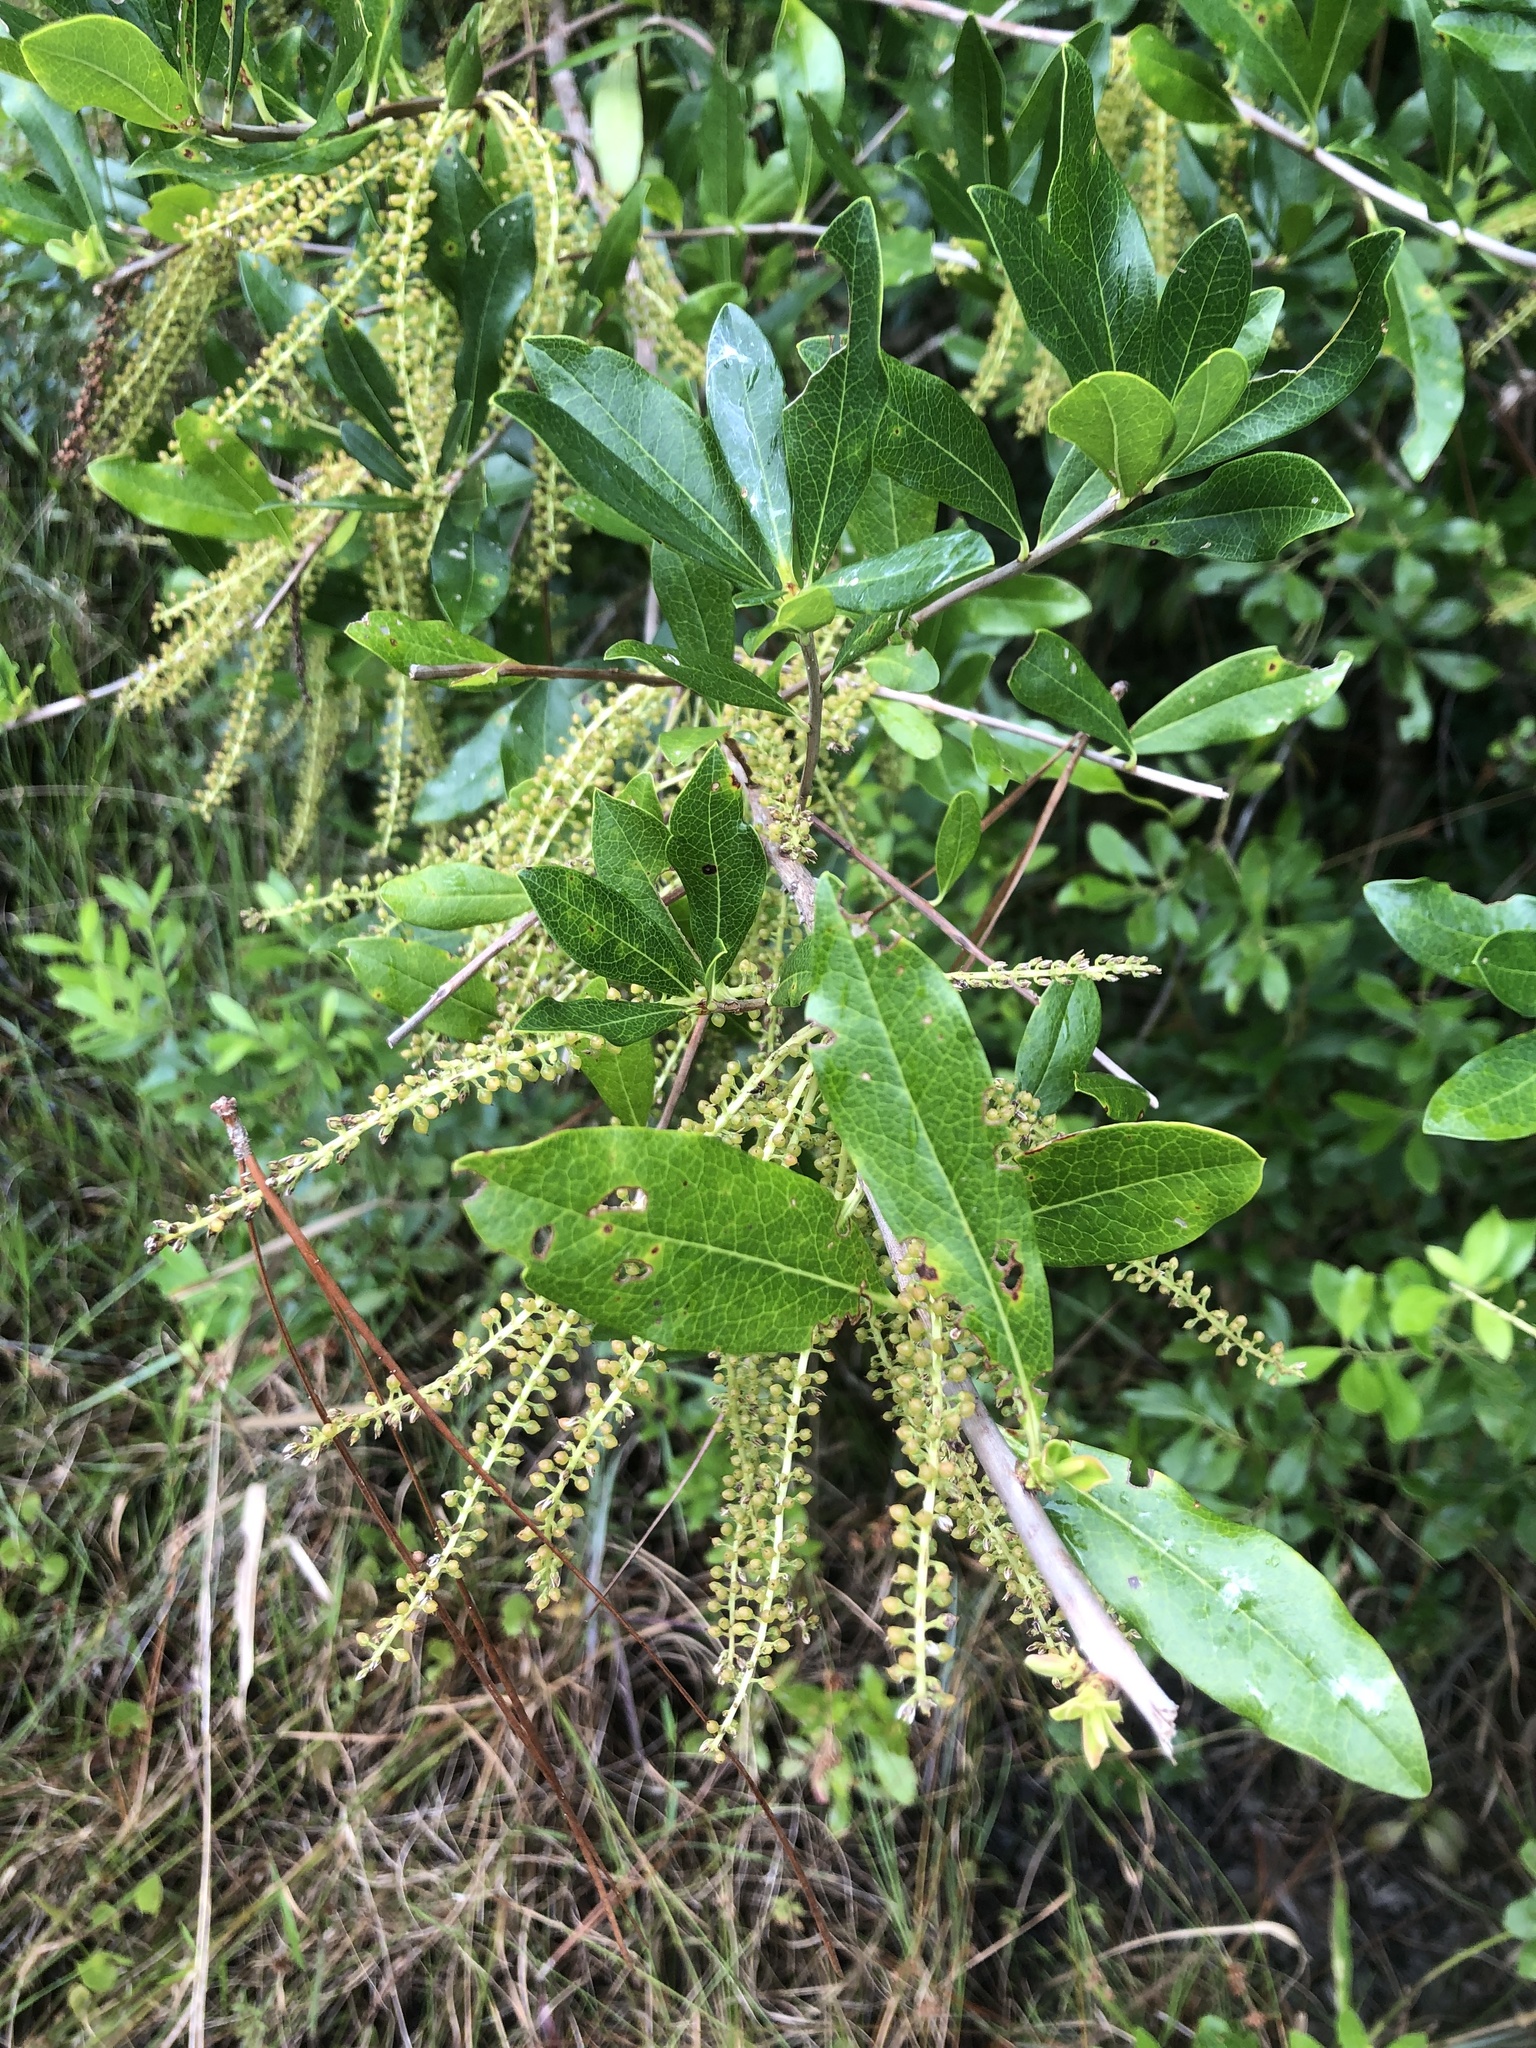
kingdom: Plantae
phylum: Tracheophyta
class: Magnoliopsida
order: Ericales
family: Cyrillaceae
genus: Cyrilla
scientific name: Cyrilla racemiflora
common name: Black titi
